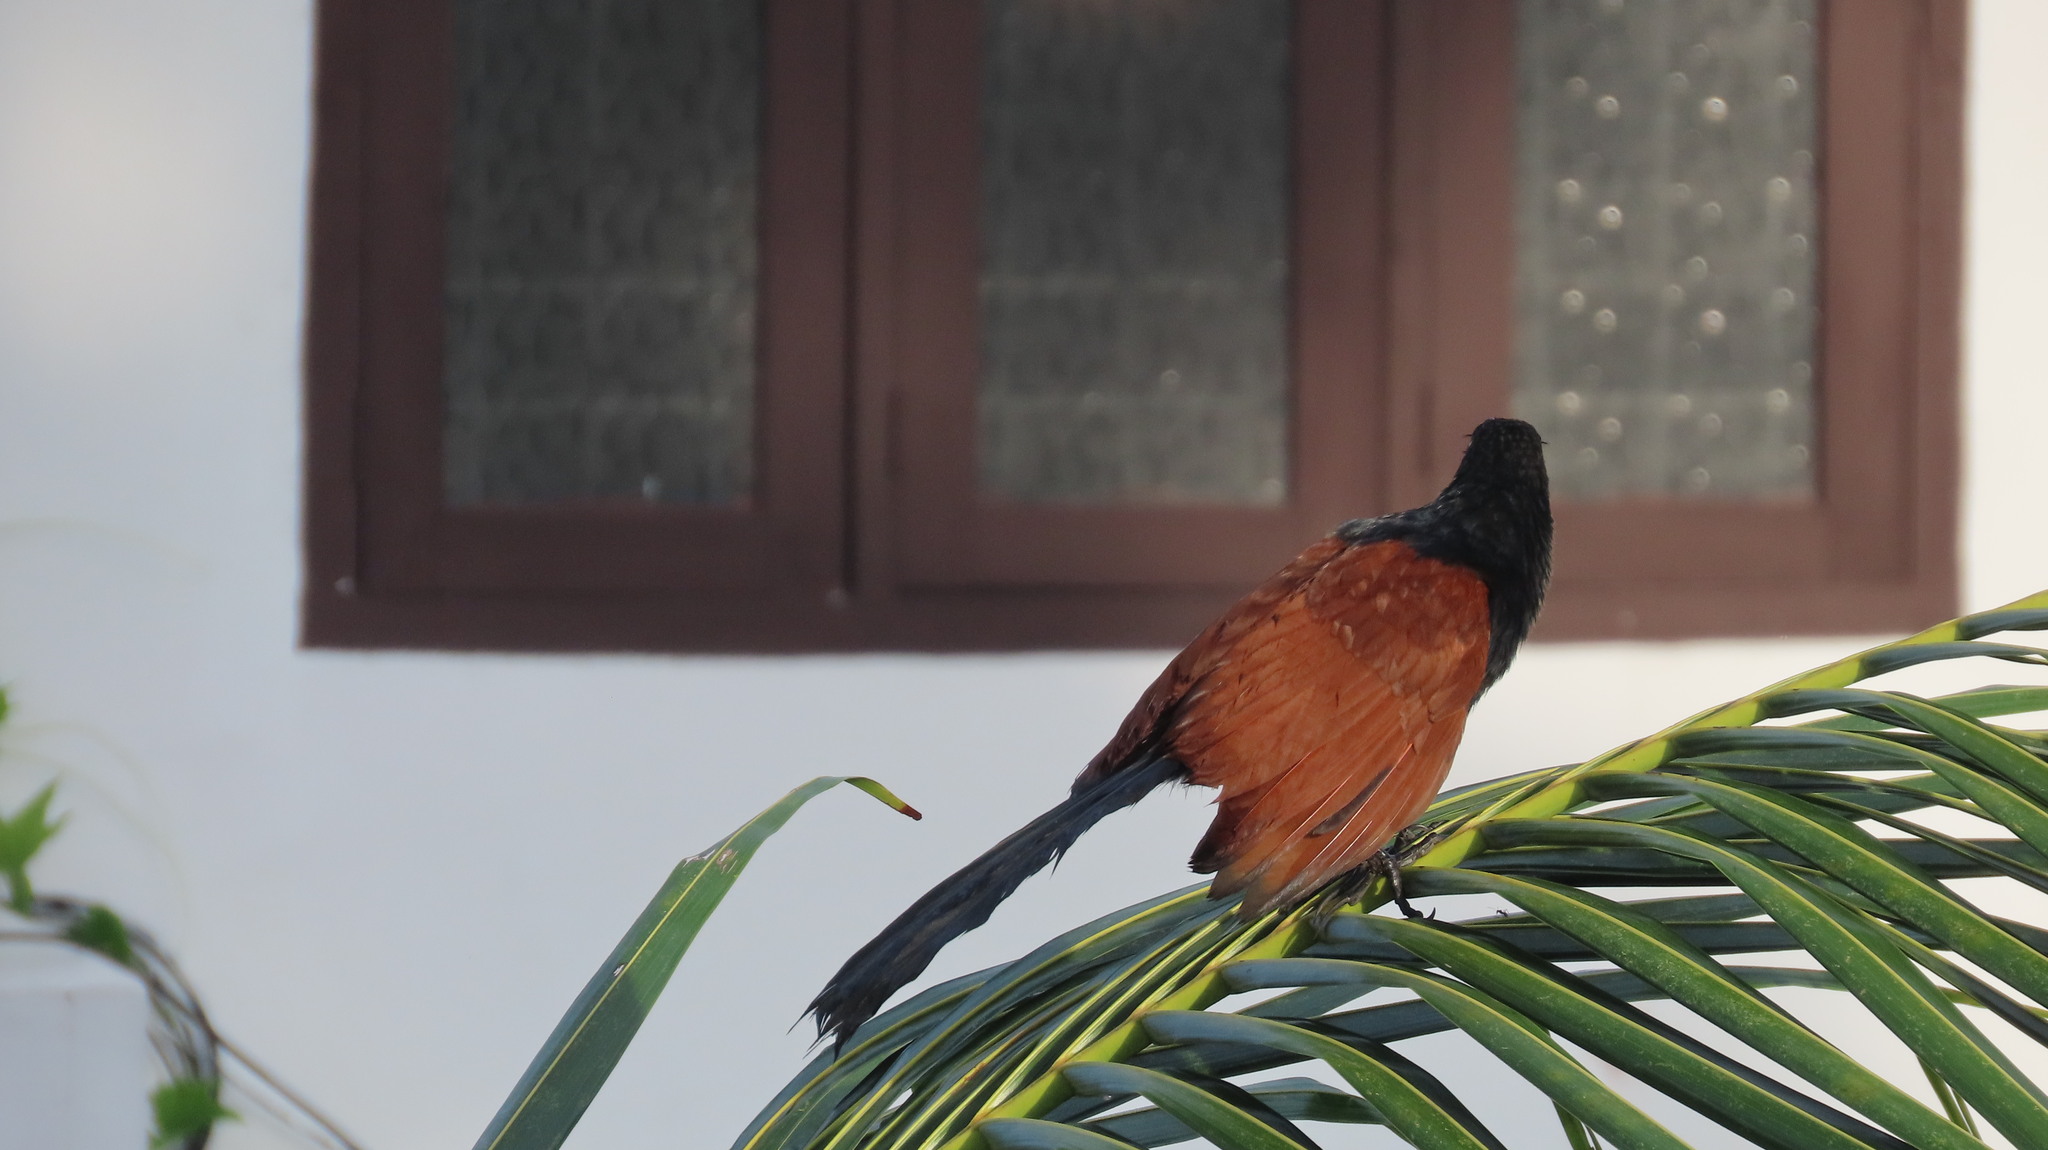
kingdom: Animalia
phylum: Chordata
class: Aves
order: Cuculiformes
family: Cuculidae
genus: Centropus
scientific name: Centropus sinensis
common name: Greater coucal
